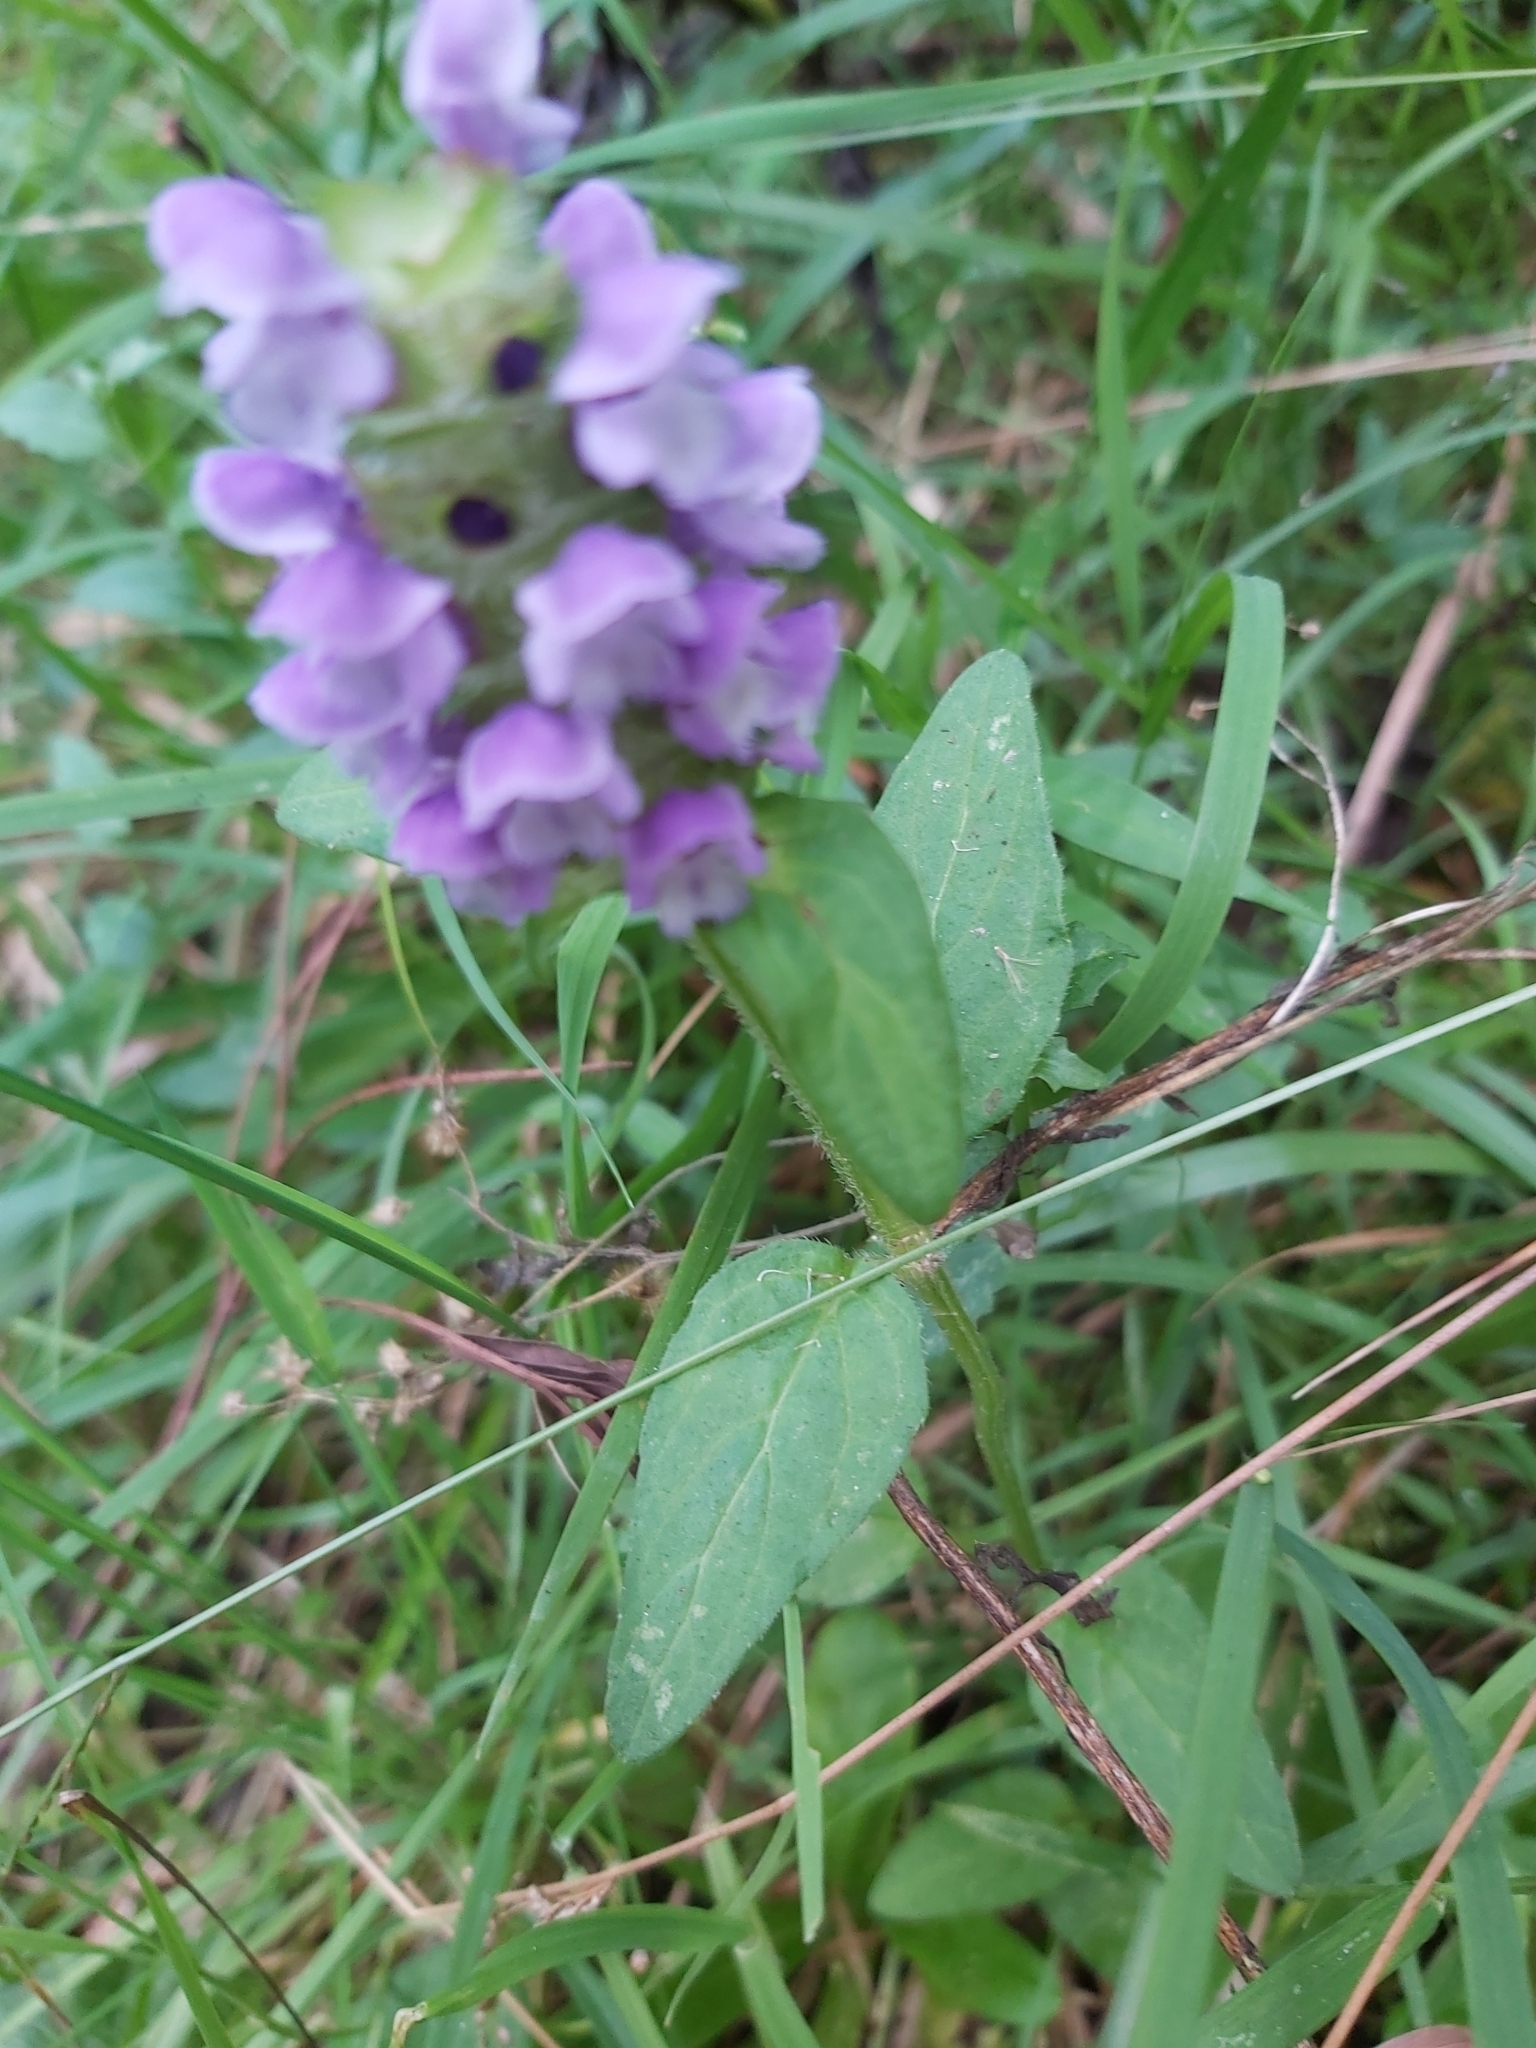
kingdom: Plantae
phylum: Tracheophyta
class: Magnoliopsida
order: Lamiales
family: Lamiaceae
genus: Prunella
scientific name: Prunella vulgaris
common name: Heal-all
